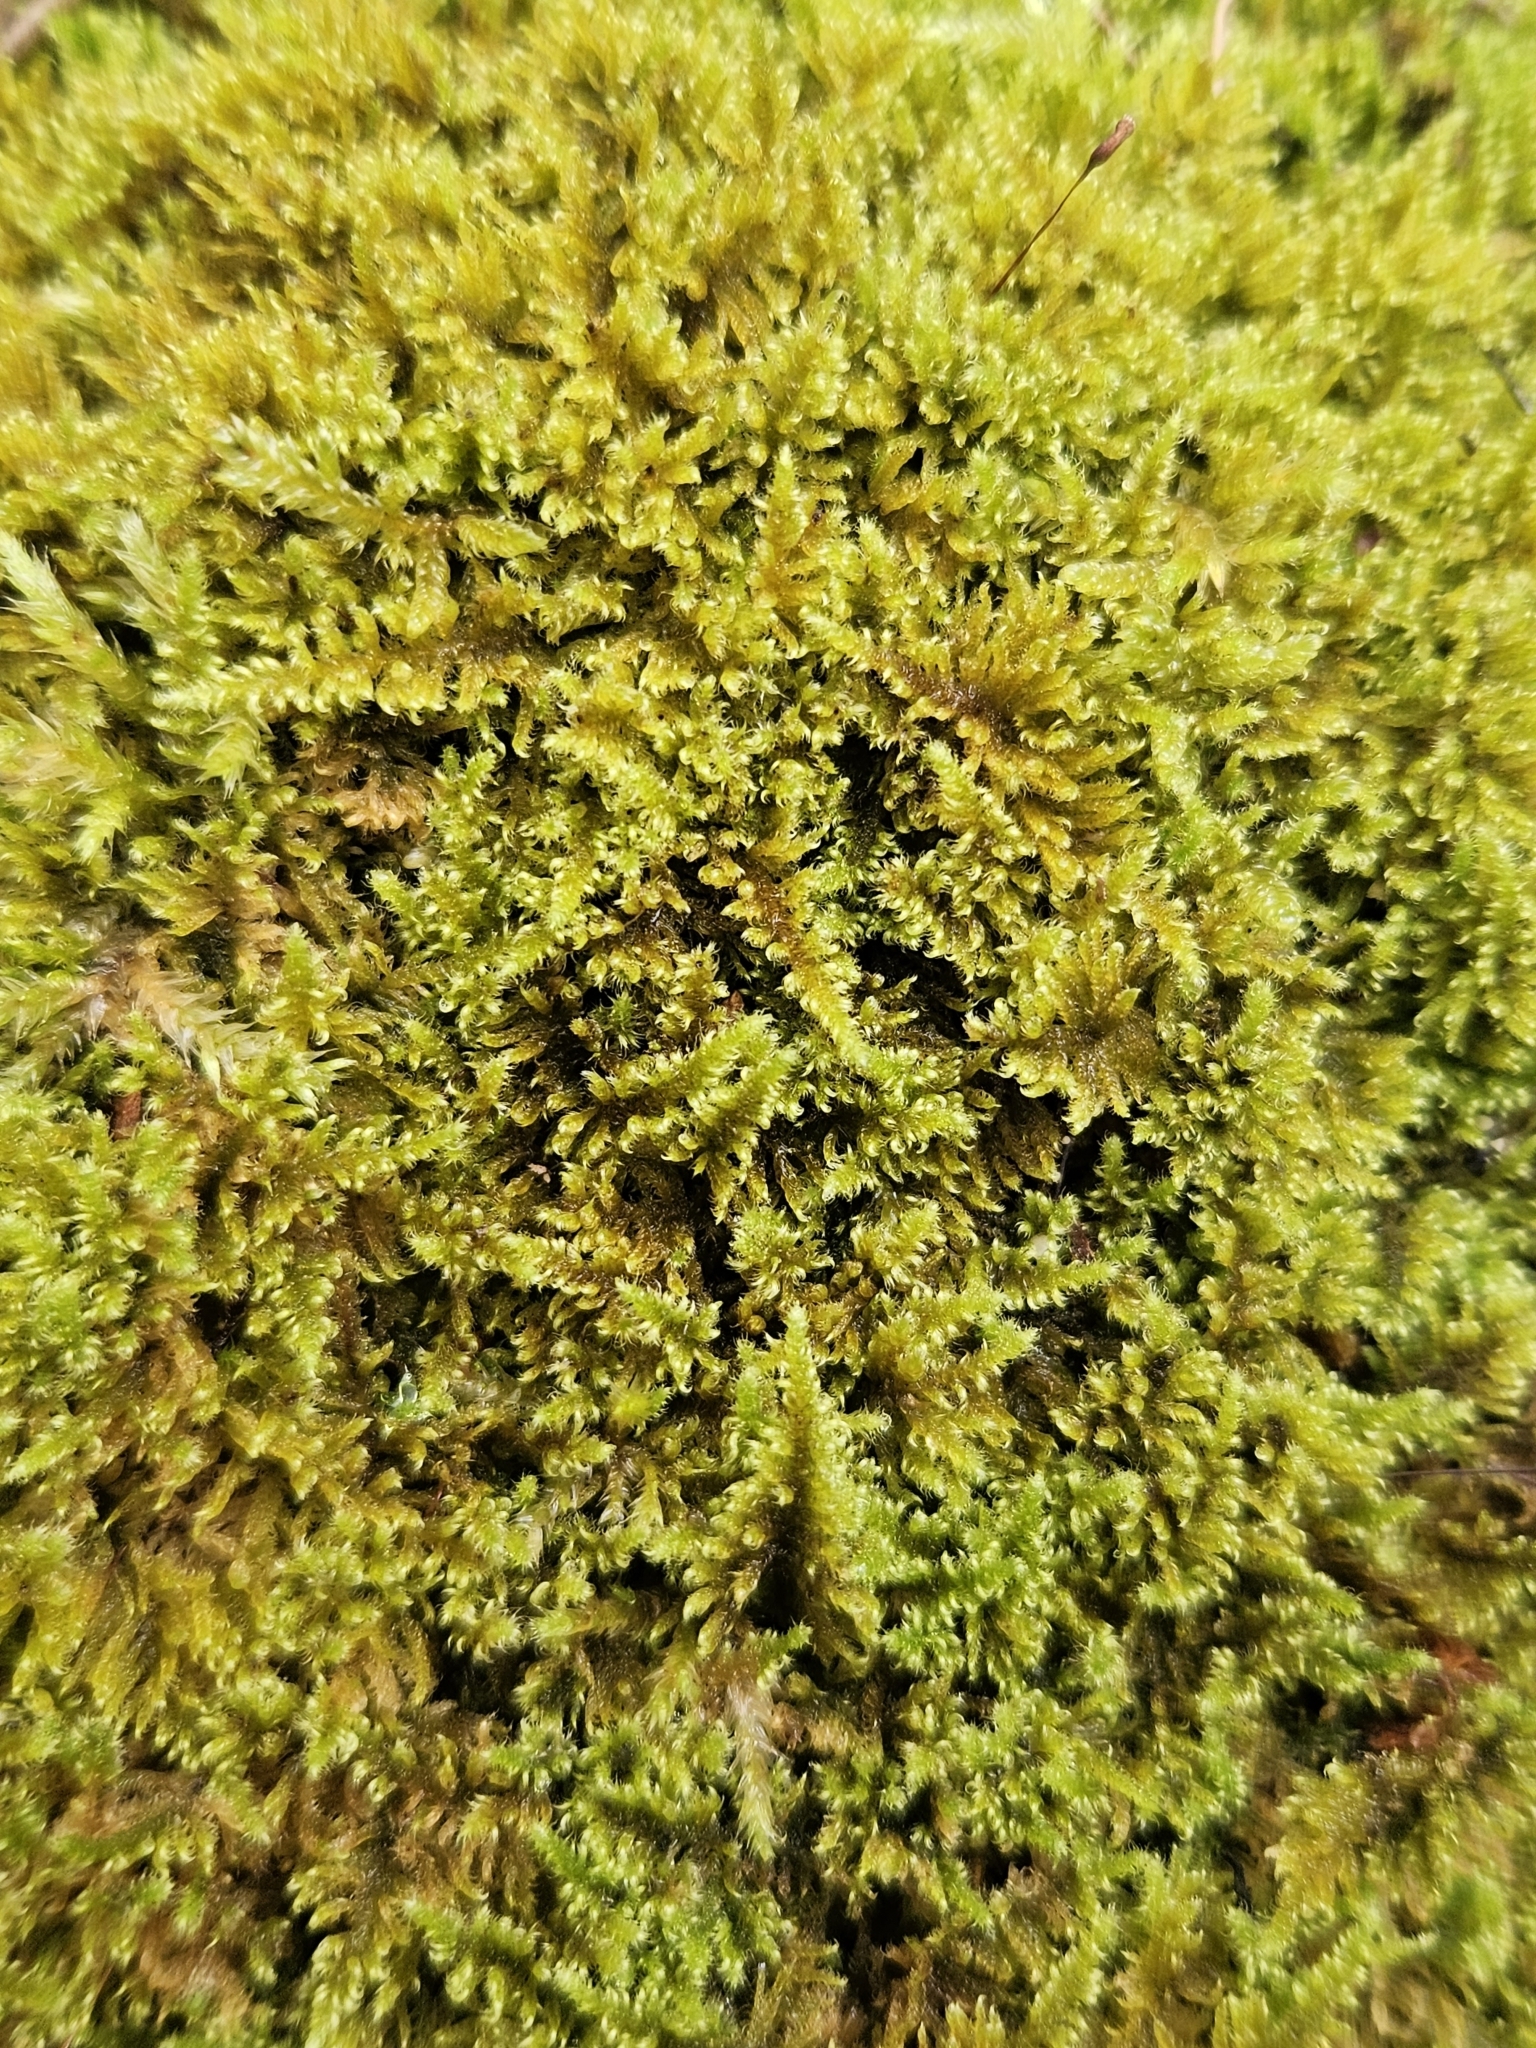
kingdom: Plantae
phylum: Bryophyta
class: Bryopsida
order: Hypnales
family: Myuriaceae
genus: Ctenidium
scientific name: Ctenidium molluscum
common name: Chalk comb-moss
